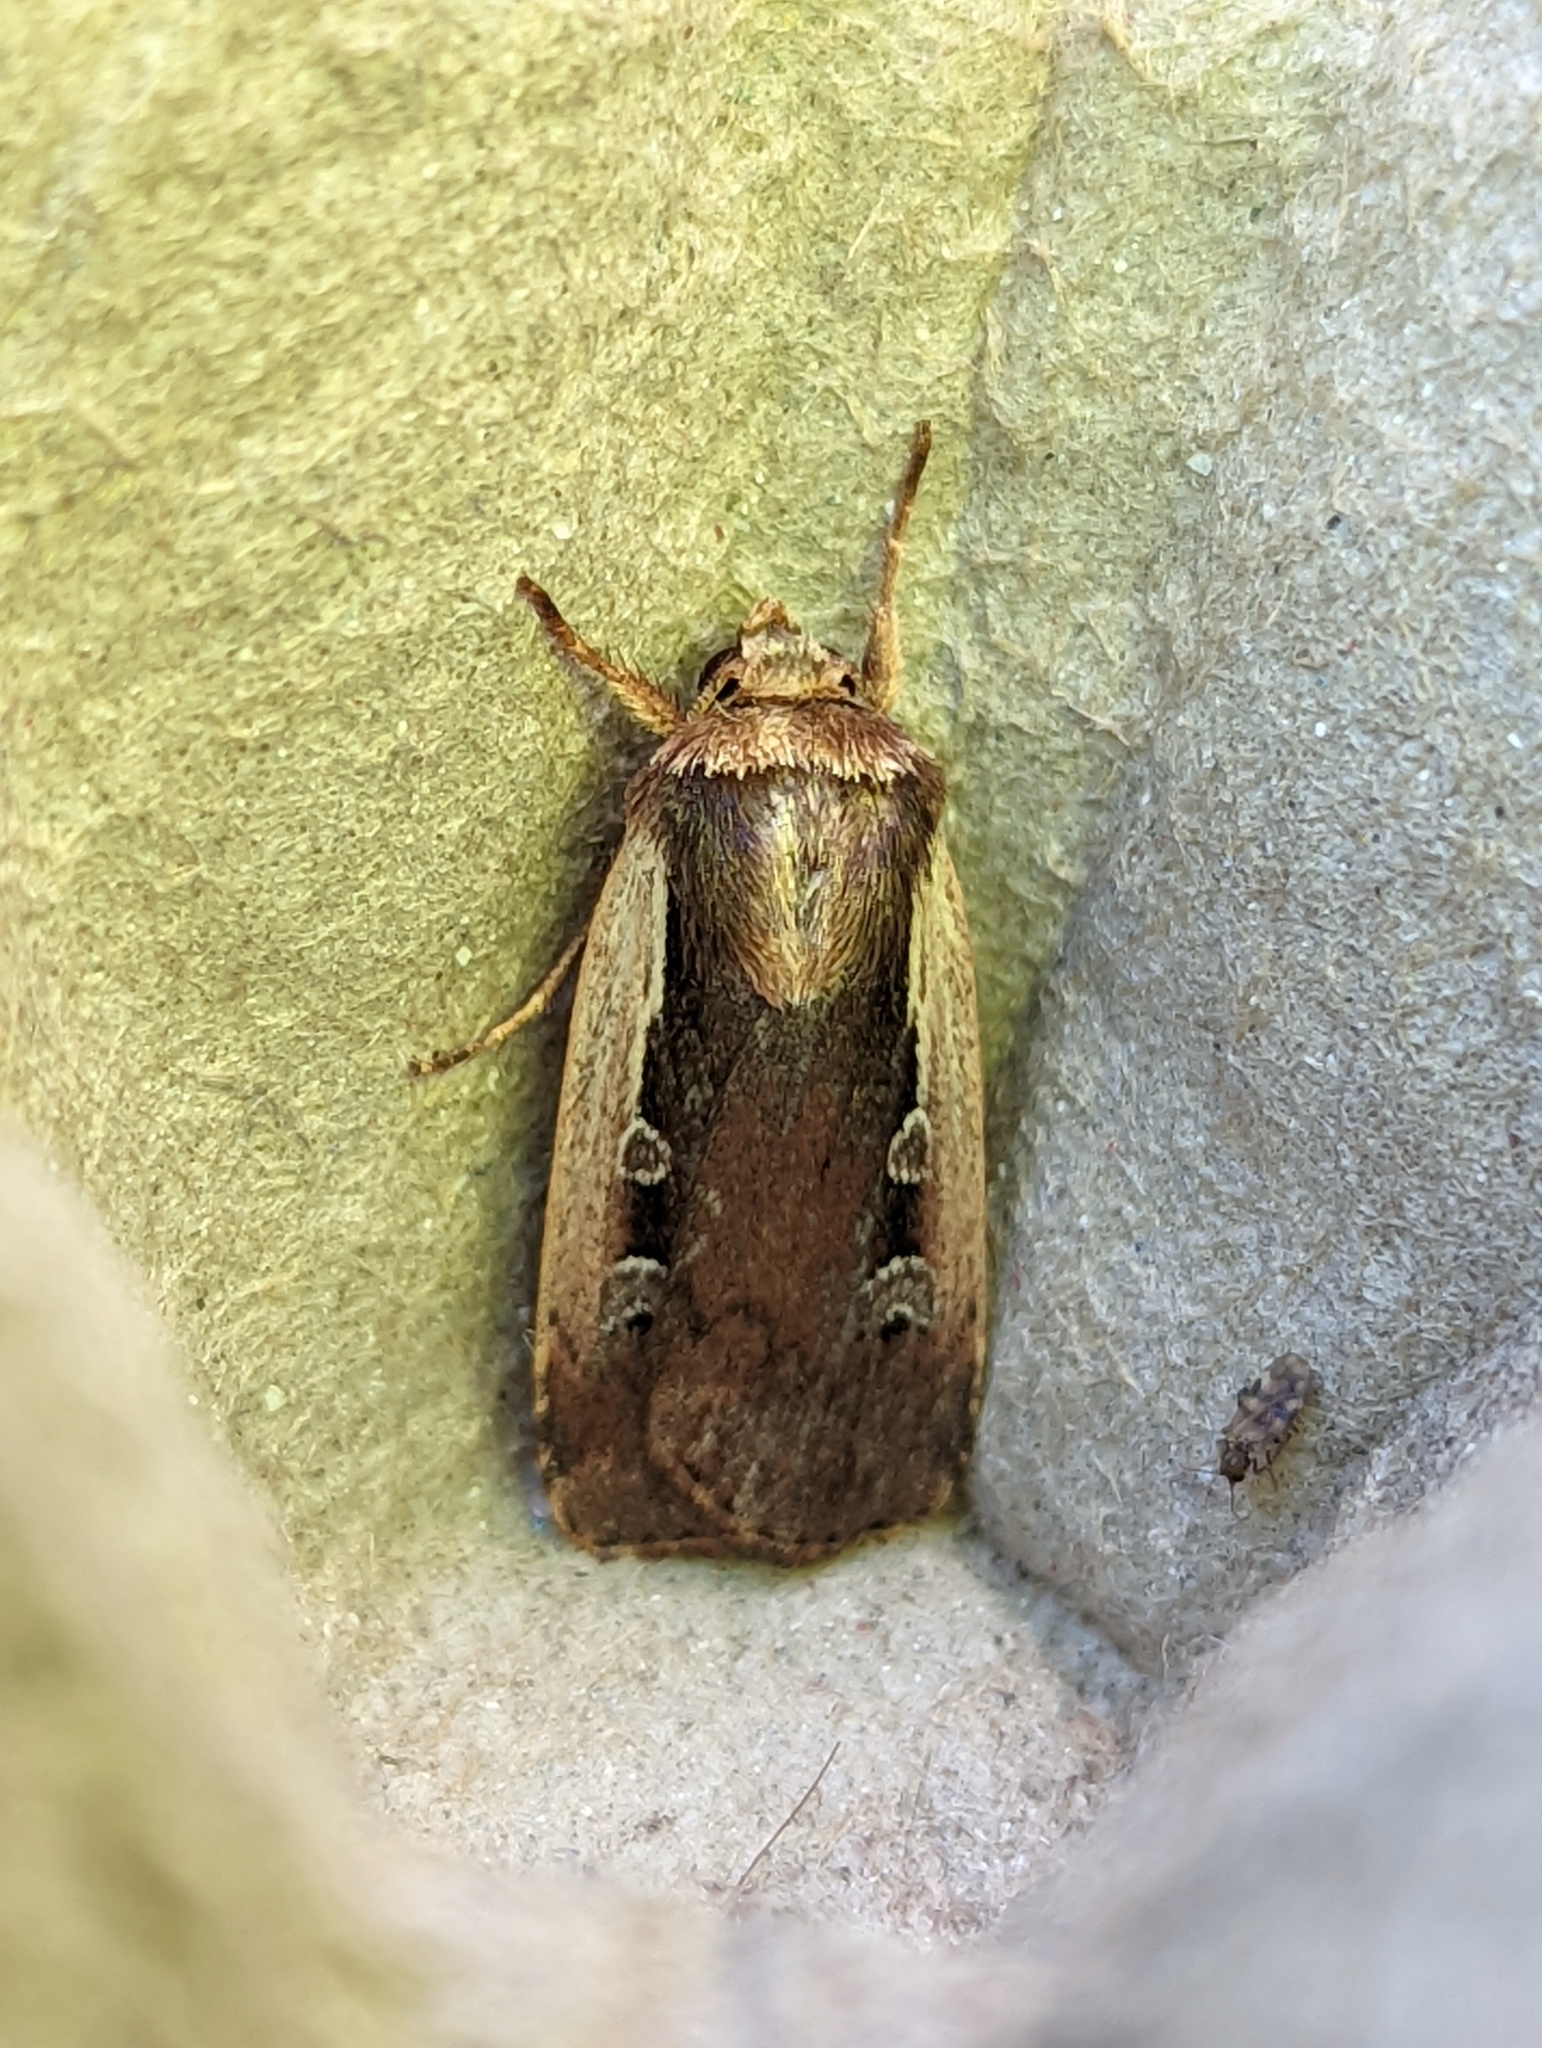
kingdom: Animalia
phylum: Arthropoda
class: Insecta
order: Lepidoptera
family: Noctuidae
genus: Ochropleura
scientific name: Ochropleura plecta
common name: Flame shoulder
